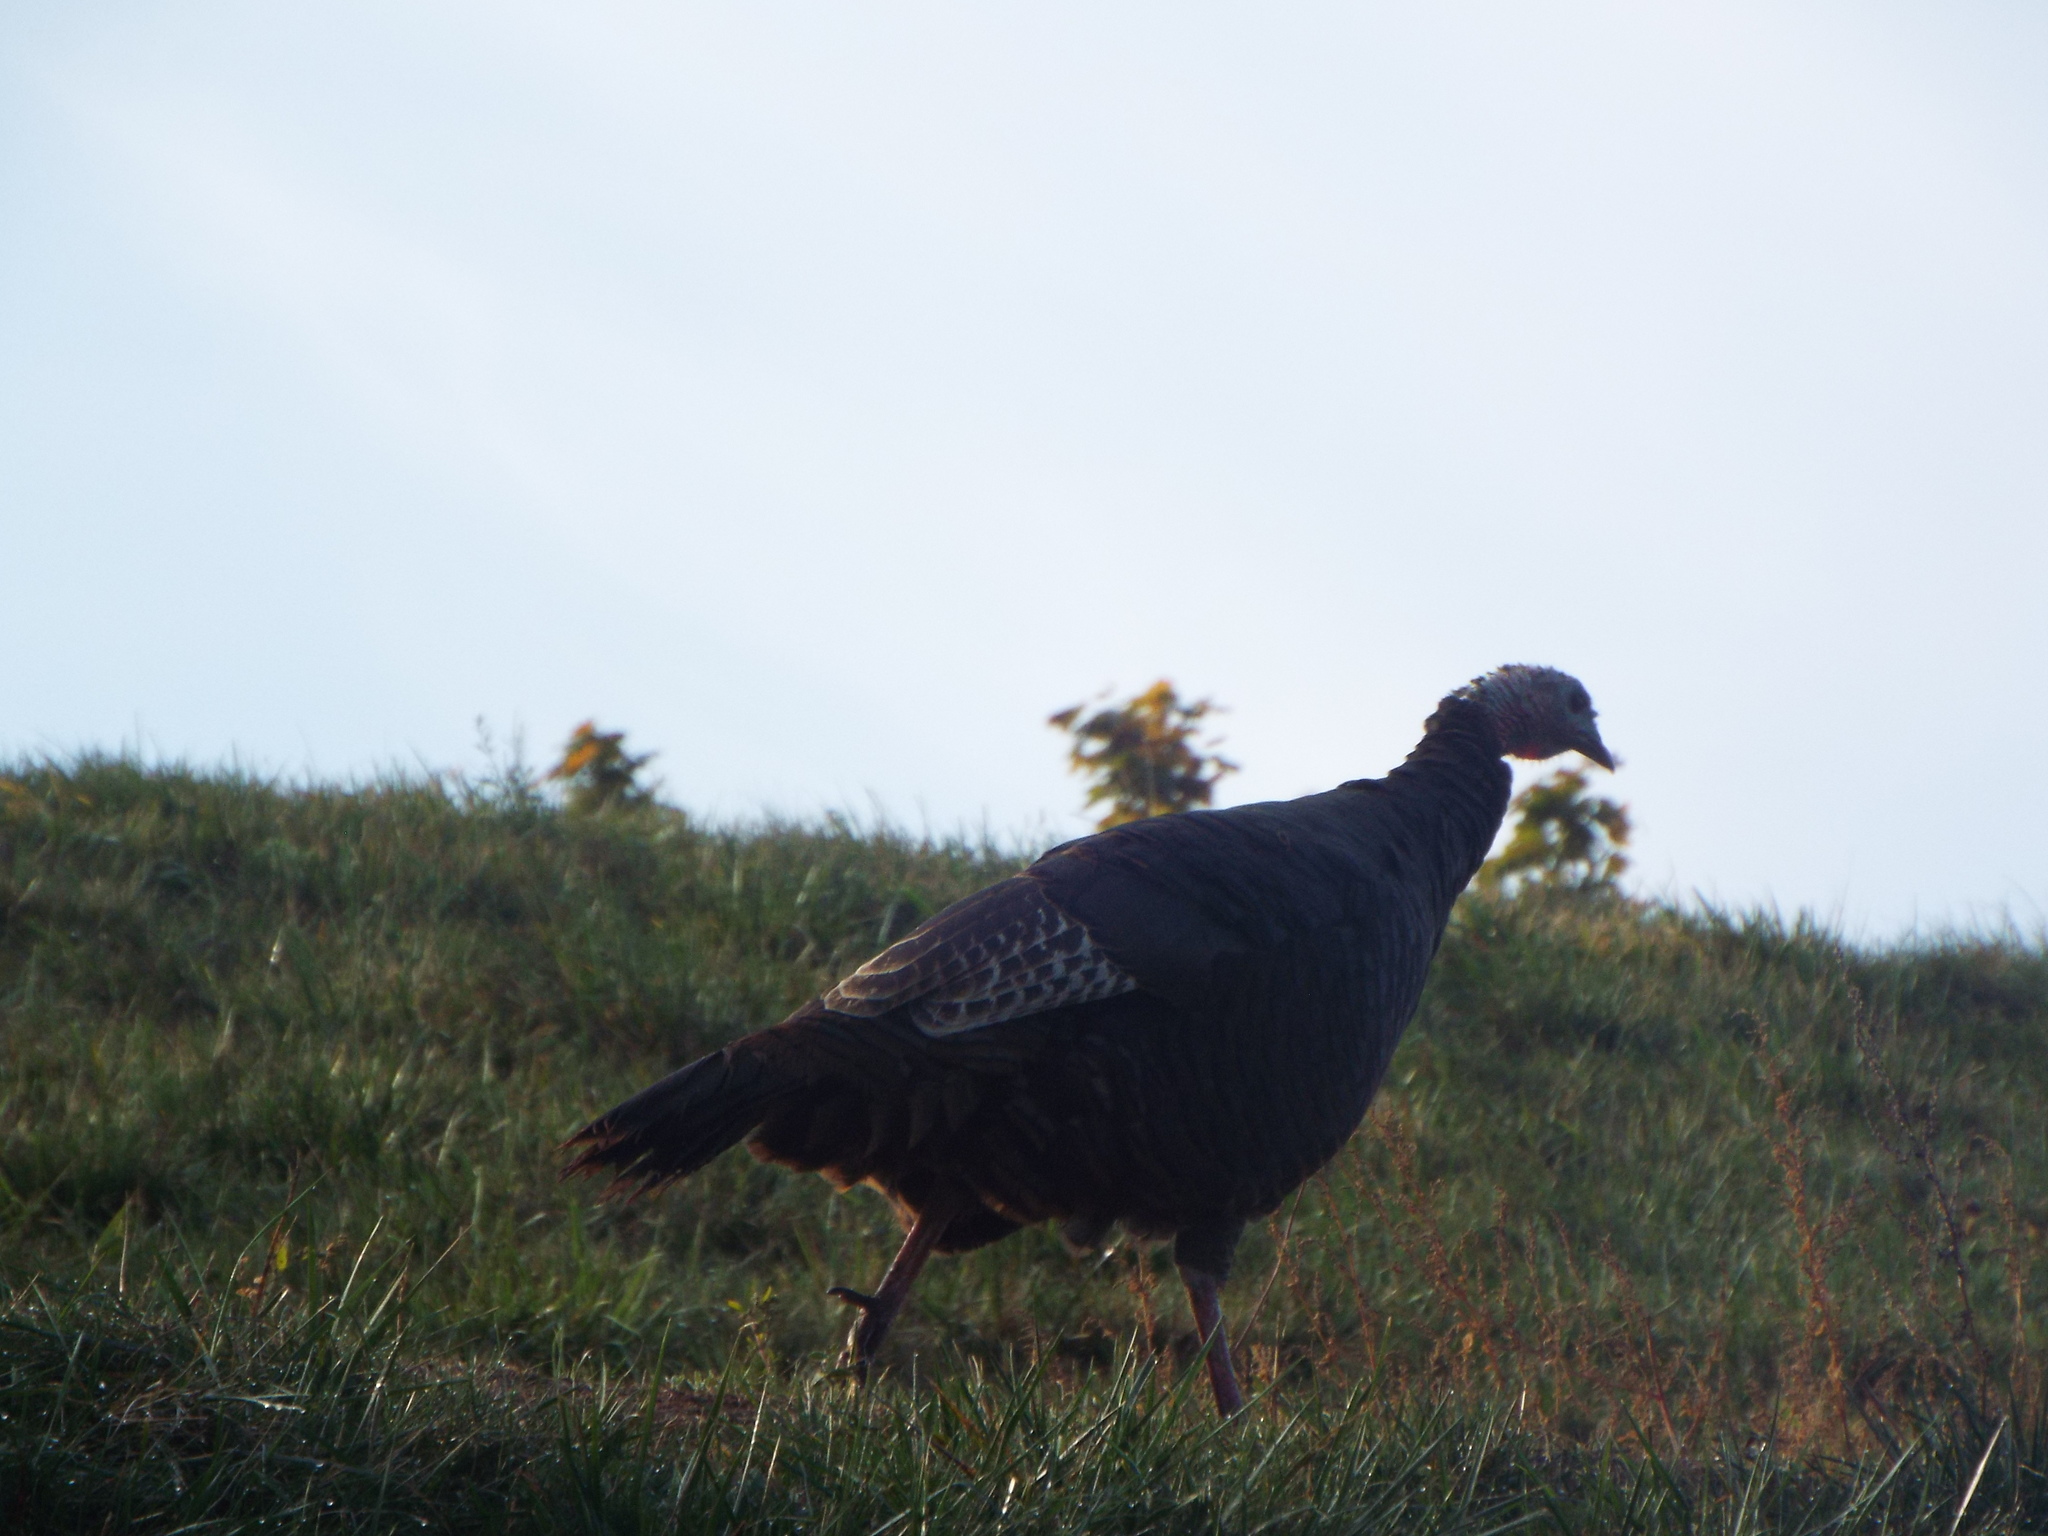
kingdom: Animalia
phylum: Chordata
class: Aves
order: Galliformes
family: Phasianidae
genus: Meleagris
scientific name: Meleagris gallopavo
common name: Wild turkey
